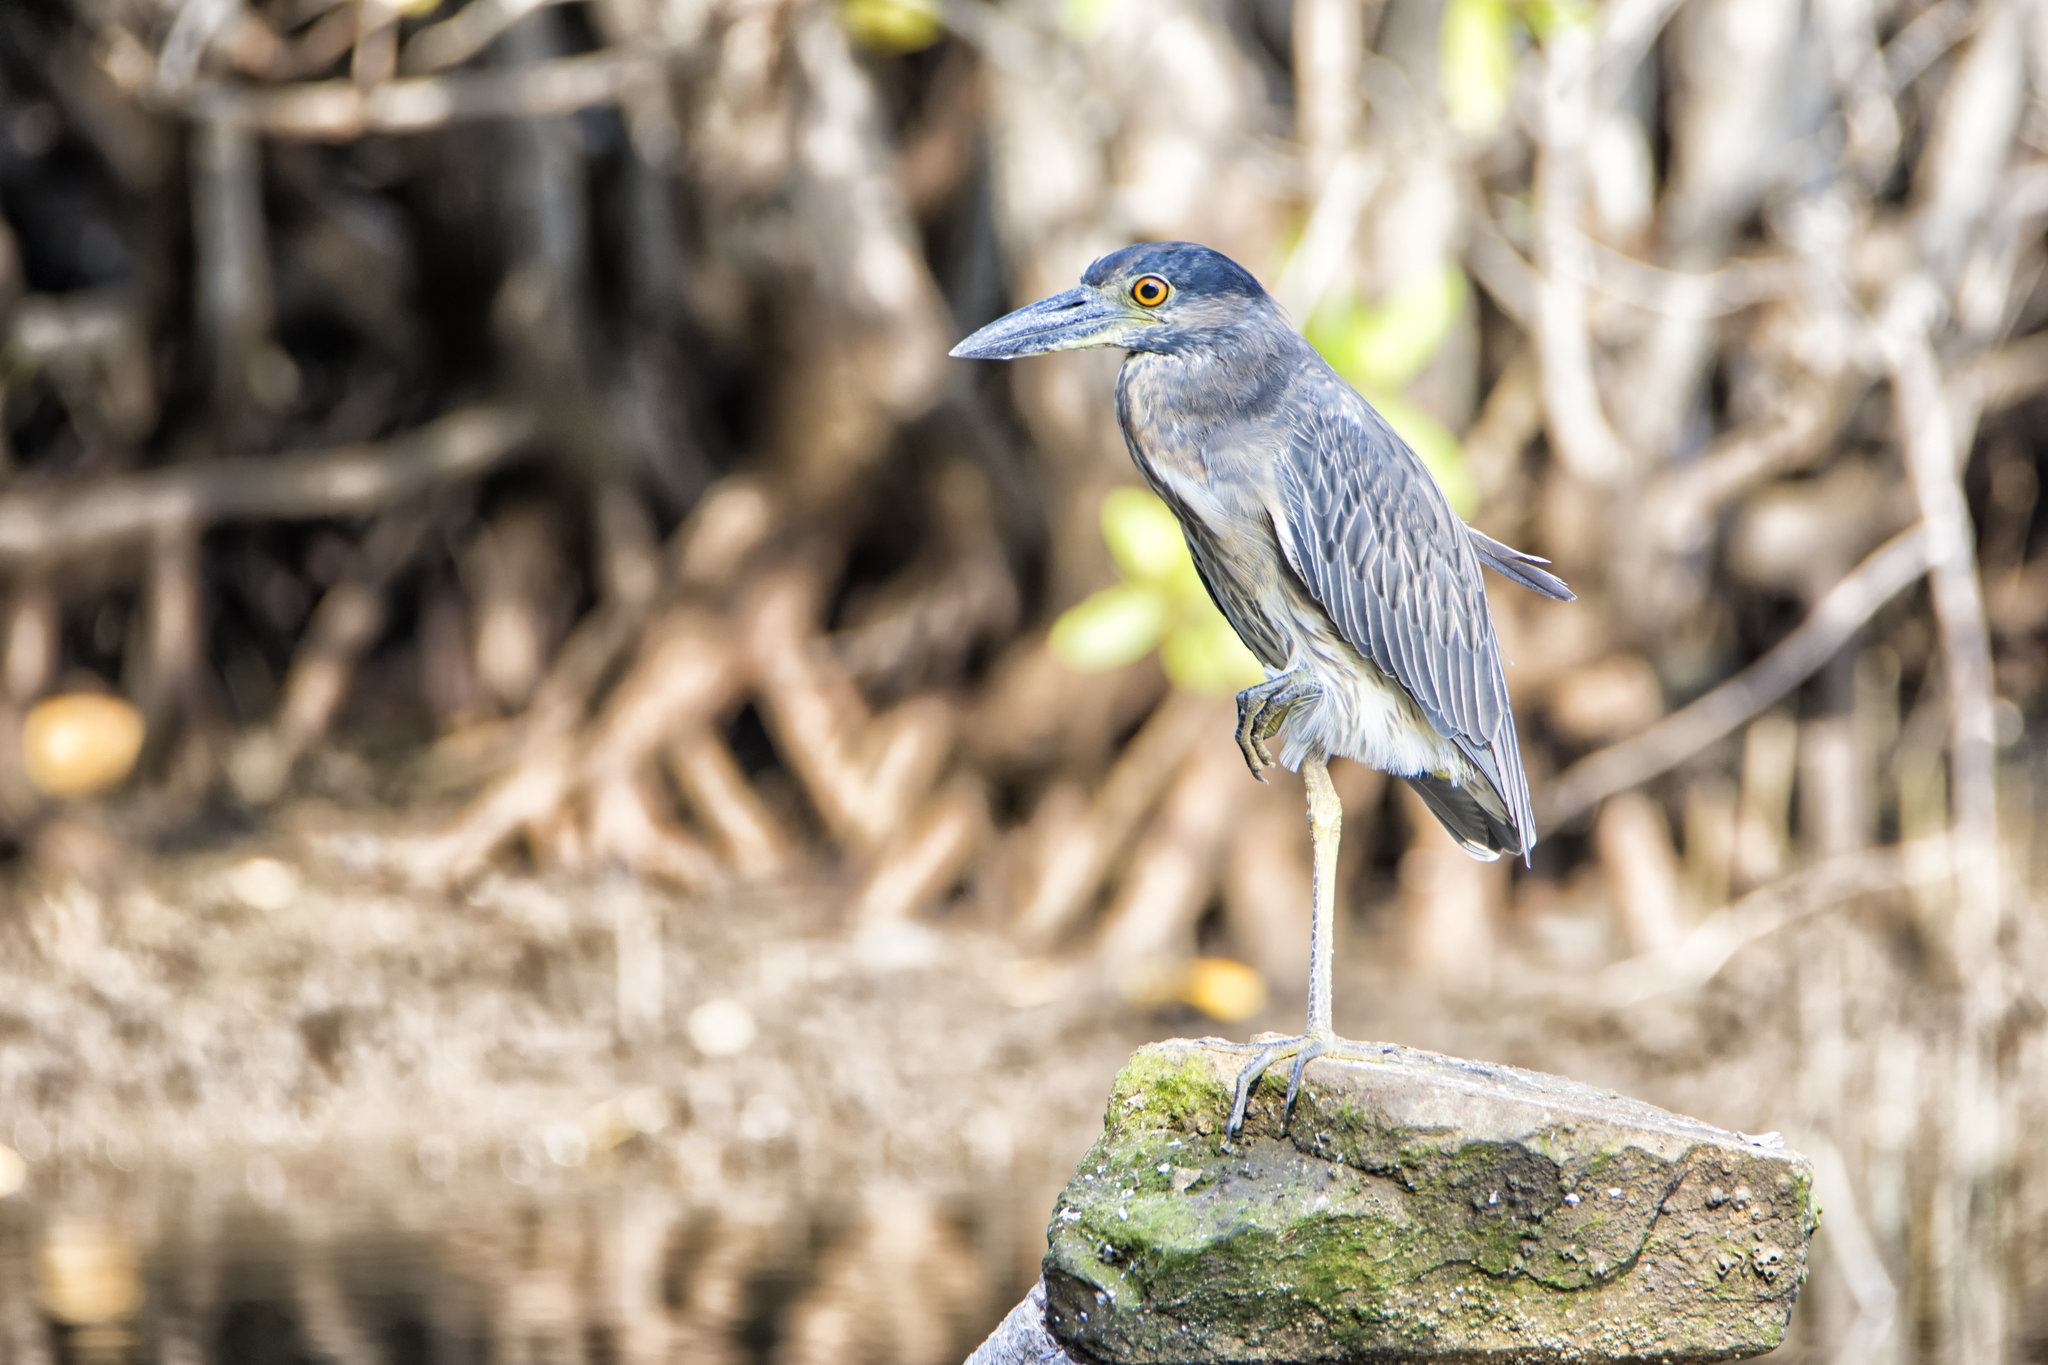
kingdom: Animalia
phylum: Chordata
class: Aves
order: Pelecaniformes
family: Ardeidae
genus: Nyctanassa
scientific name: Nyctanassa violacea
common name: Yellow-crowned night heron
